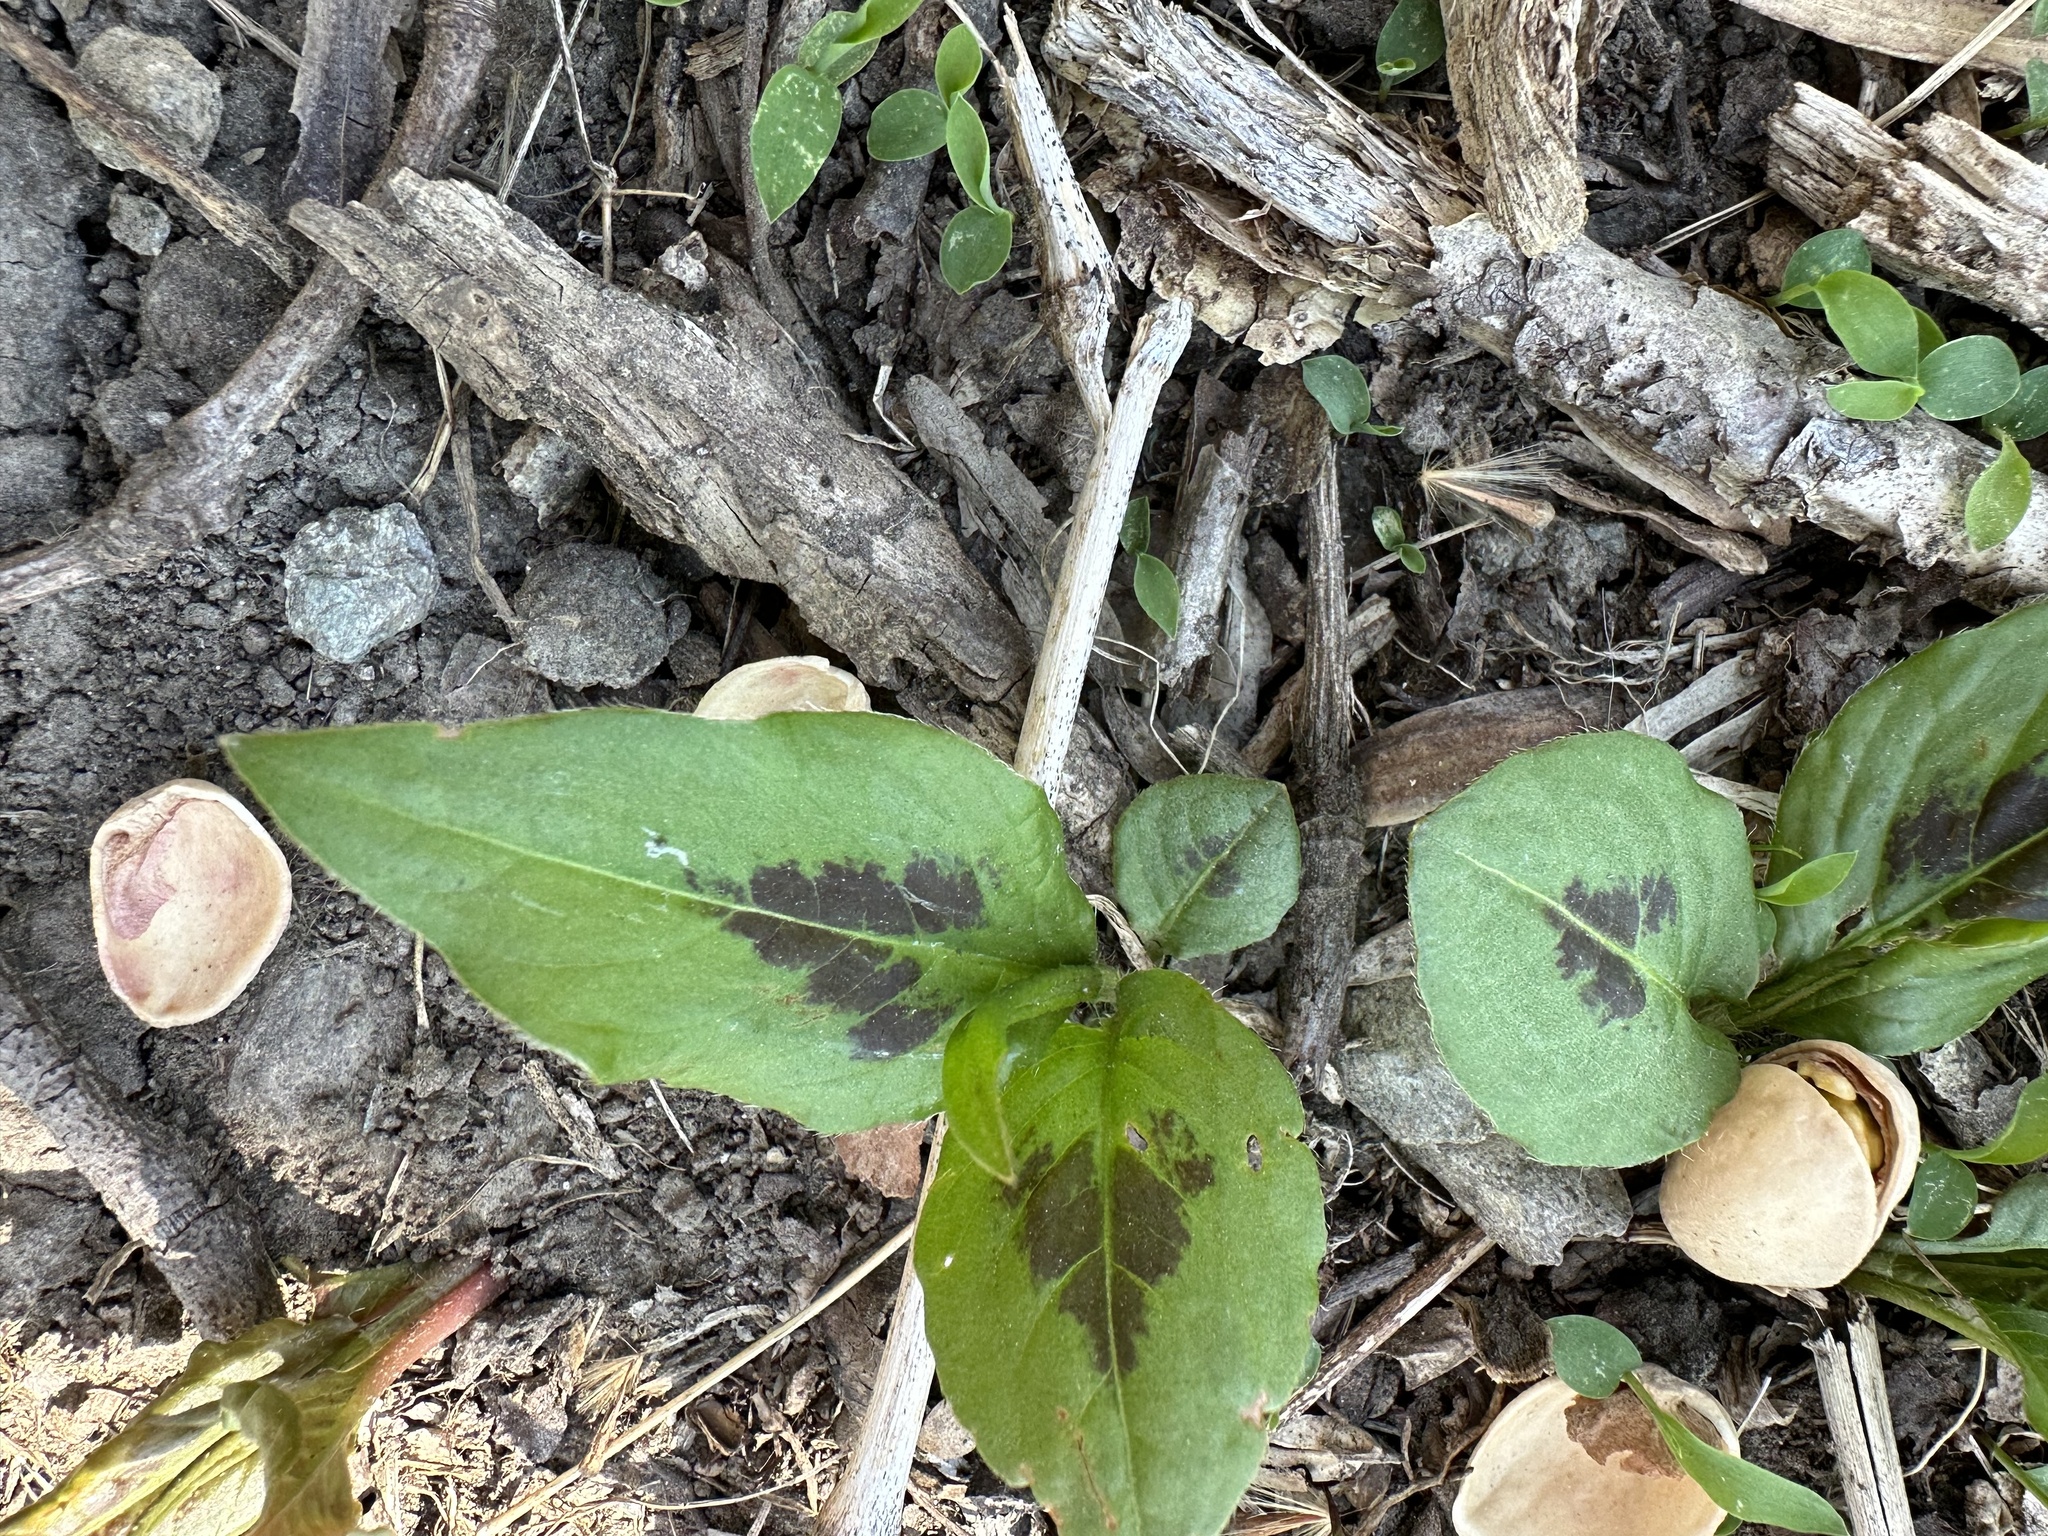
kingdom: Plantae
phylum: Tracheophyta
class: Magnoliopsida
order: Caryophyllales
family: Polygonaceae
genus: Persicaria
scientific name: Persicaria virginiana
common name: Jumpseed
